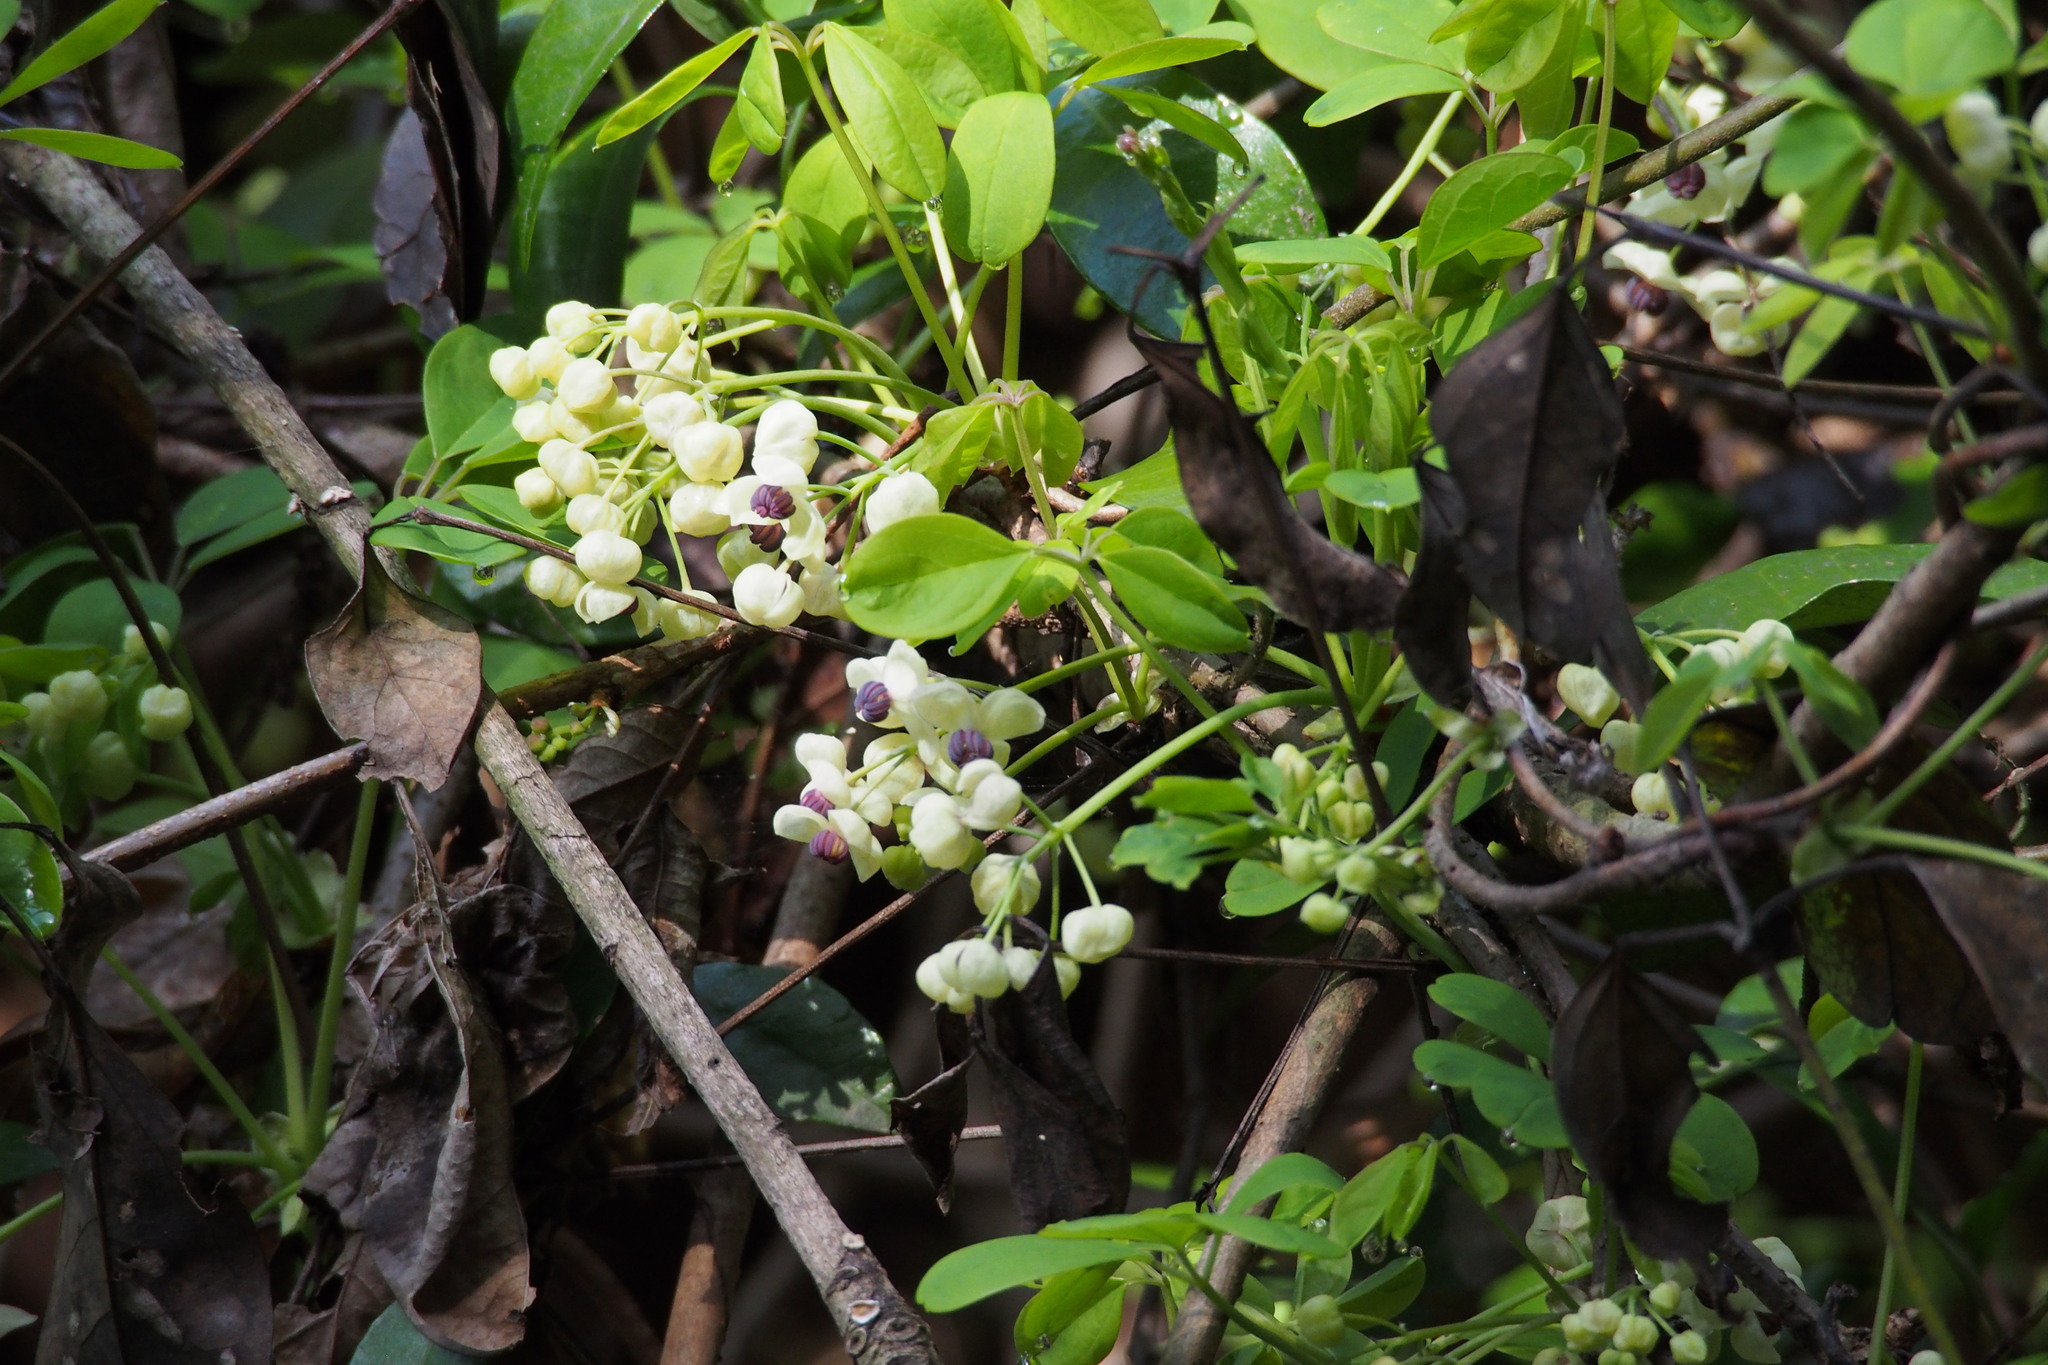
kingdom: Plantae
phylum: Tracheophyta
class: Magnoliopsida
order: Ranunculales
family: Lardizabalaceae
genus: Akebia
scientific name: Akebia quinata
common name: Five-leaf akebia
